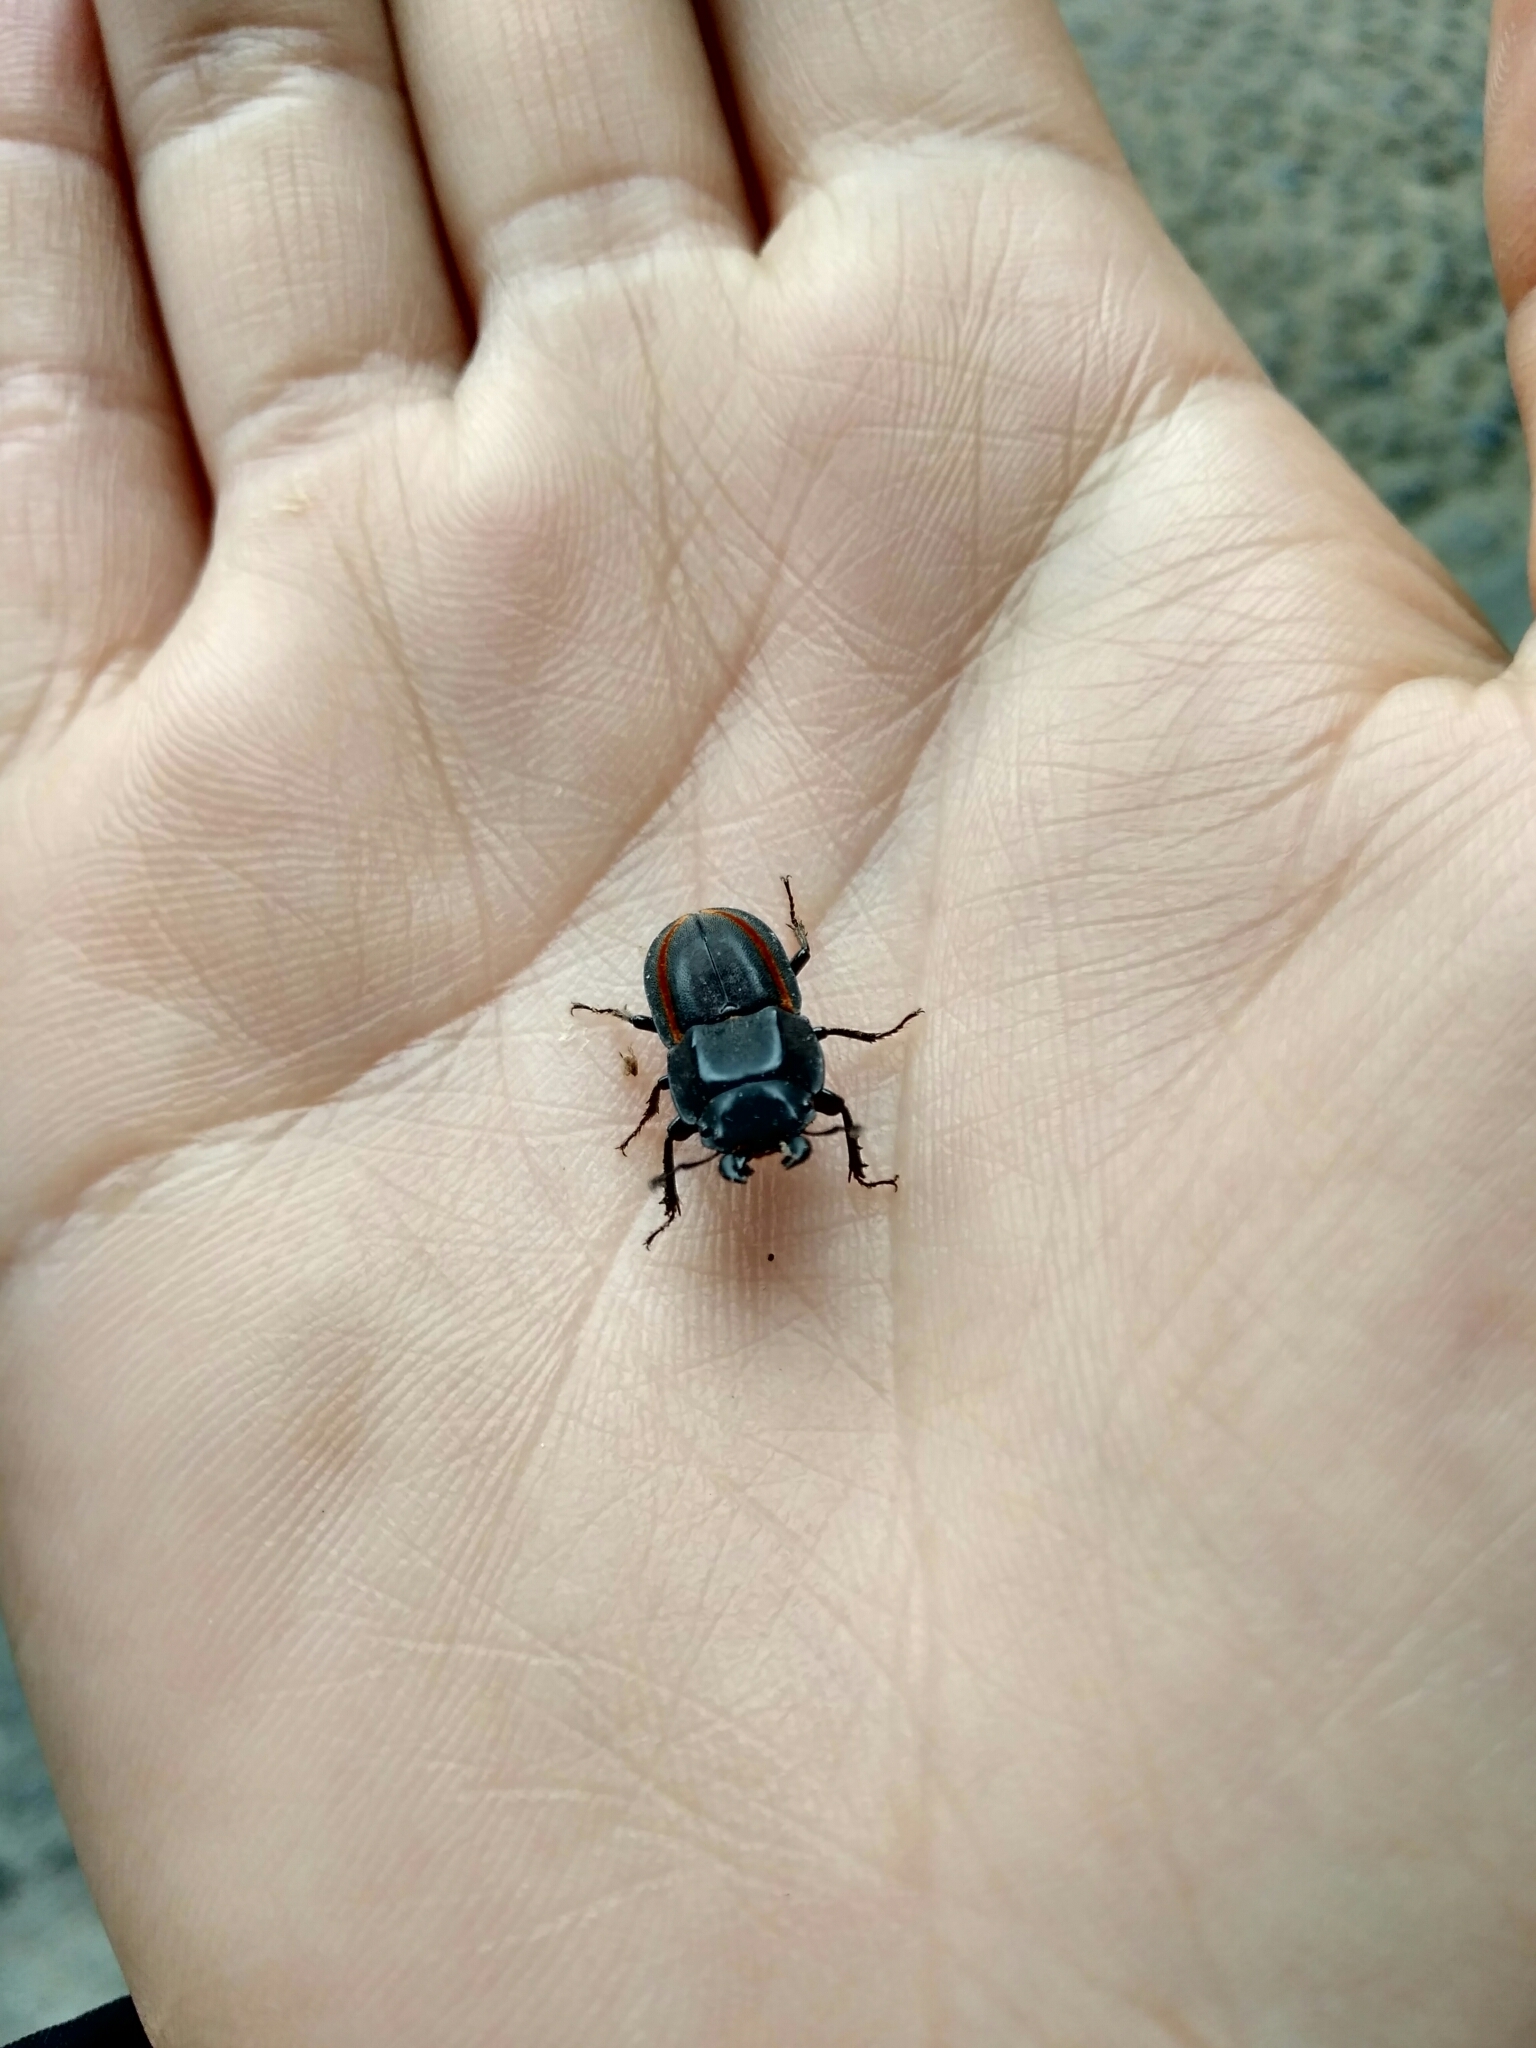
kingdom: Animalia
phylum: Arthropoda
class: Insecta
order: Coleoptera
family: Lucanidae
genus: Erichius
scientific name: Erichius vittatus
